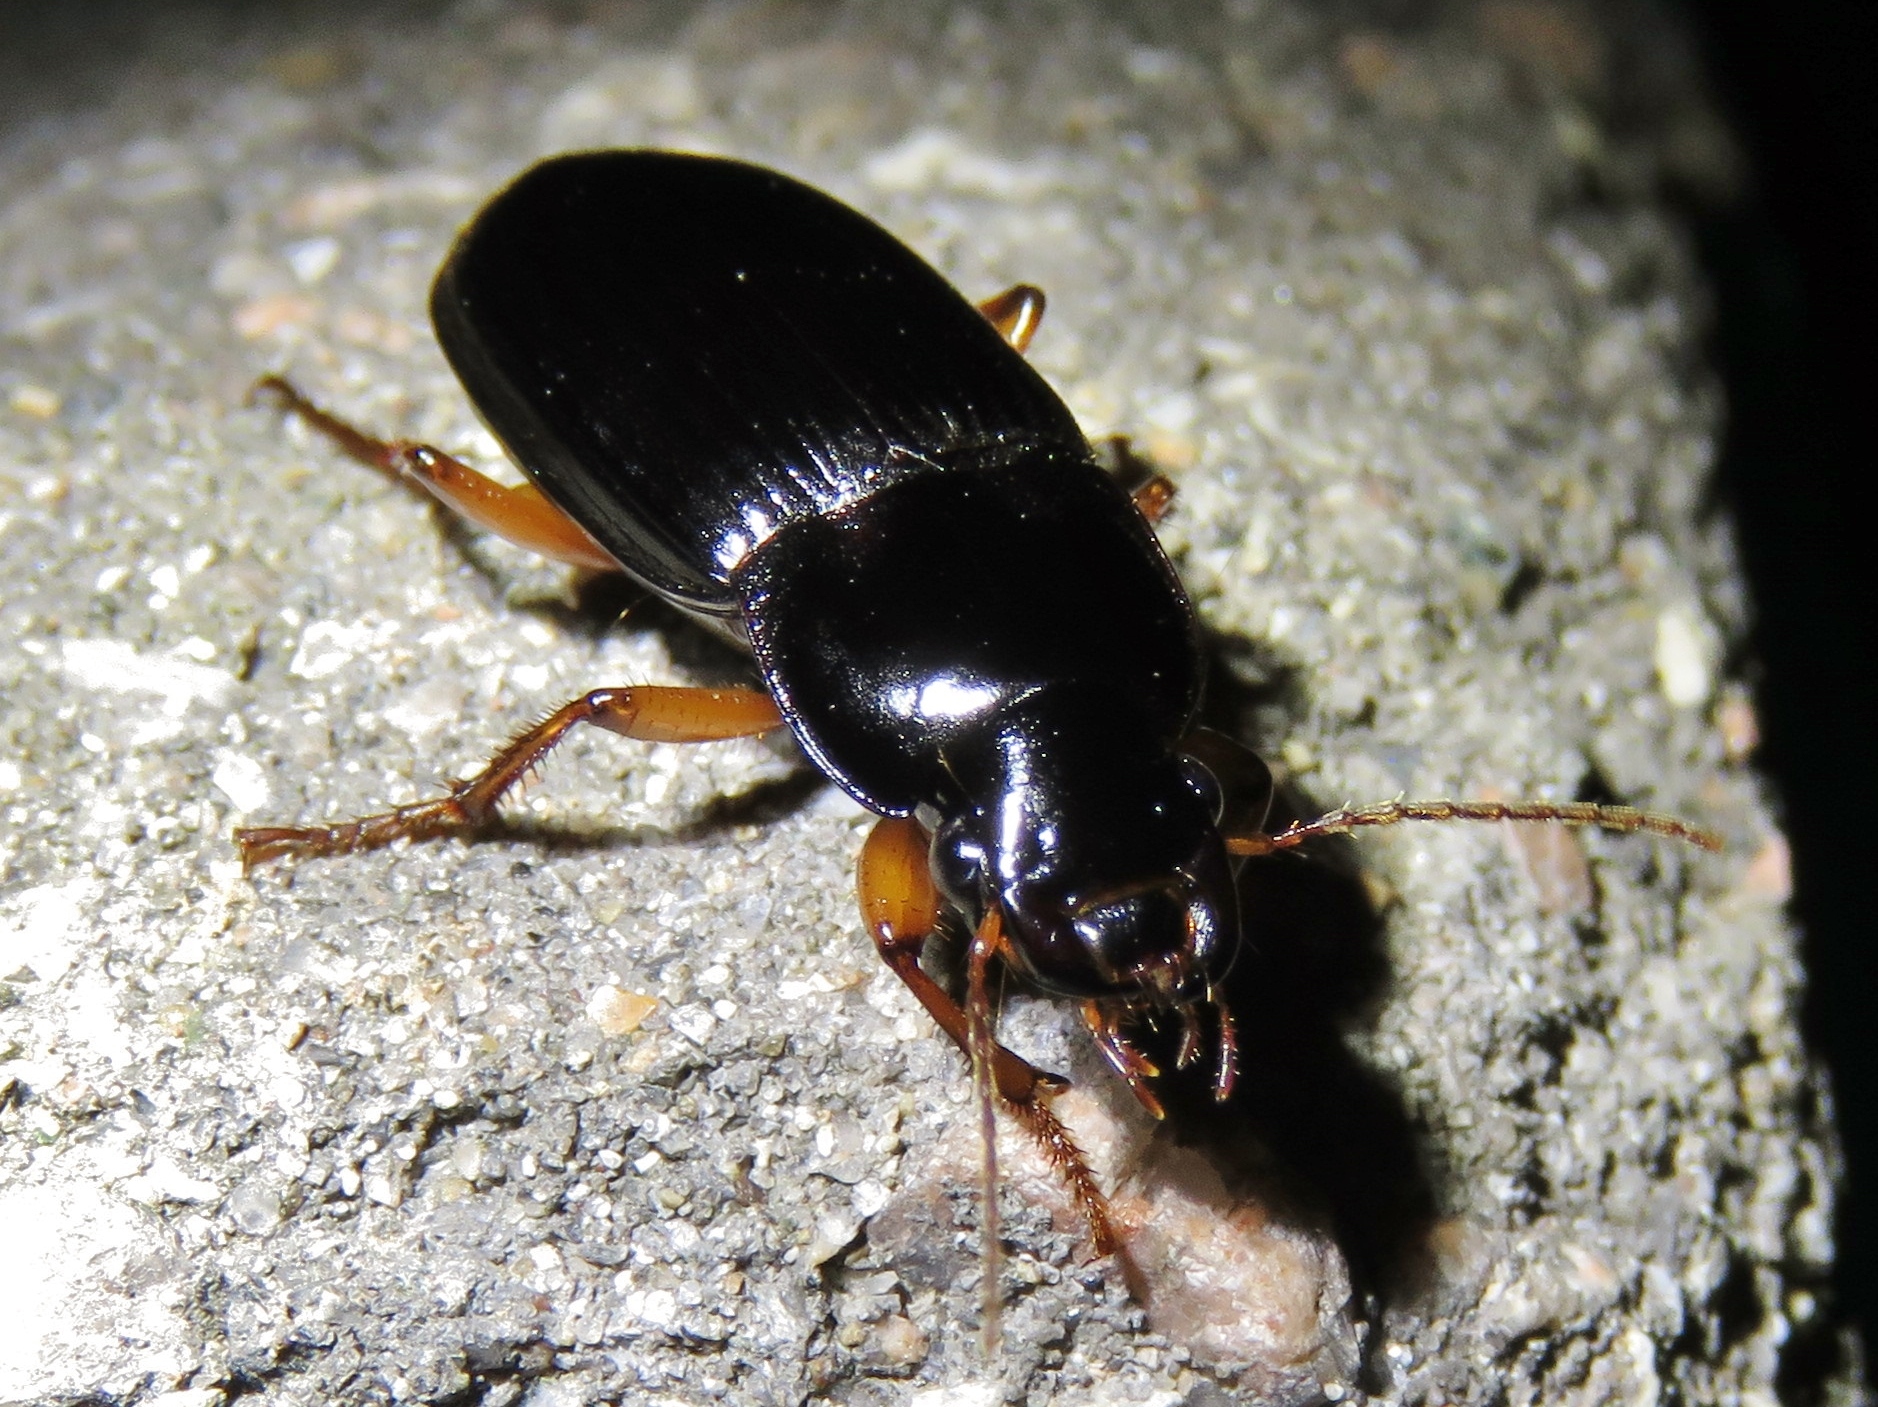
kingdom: Animalia
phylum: Arthropoda
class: Insecta
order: Coleoptera
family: Carabidae
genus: Notiobia
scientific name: Notiobia terminata
